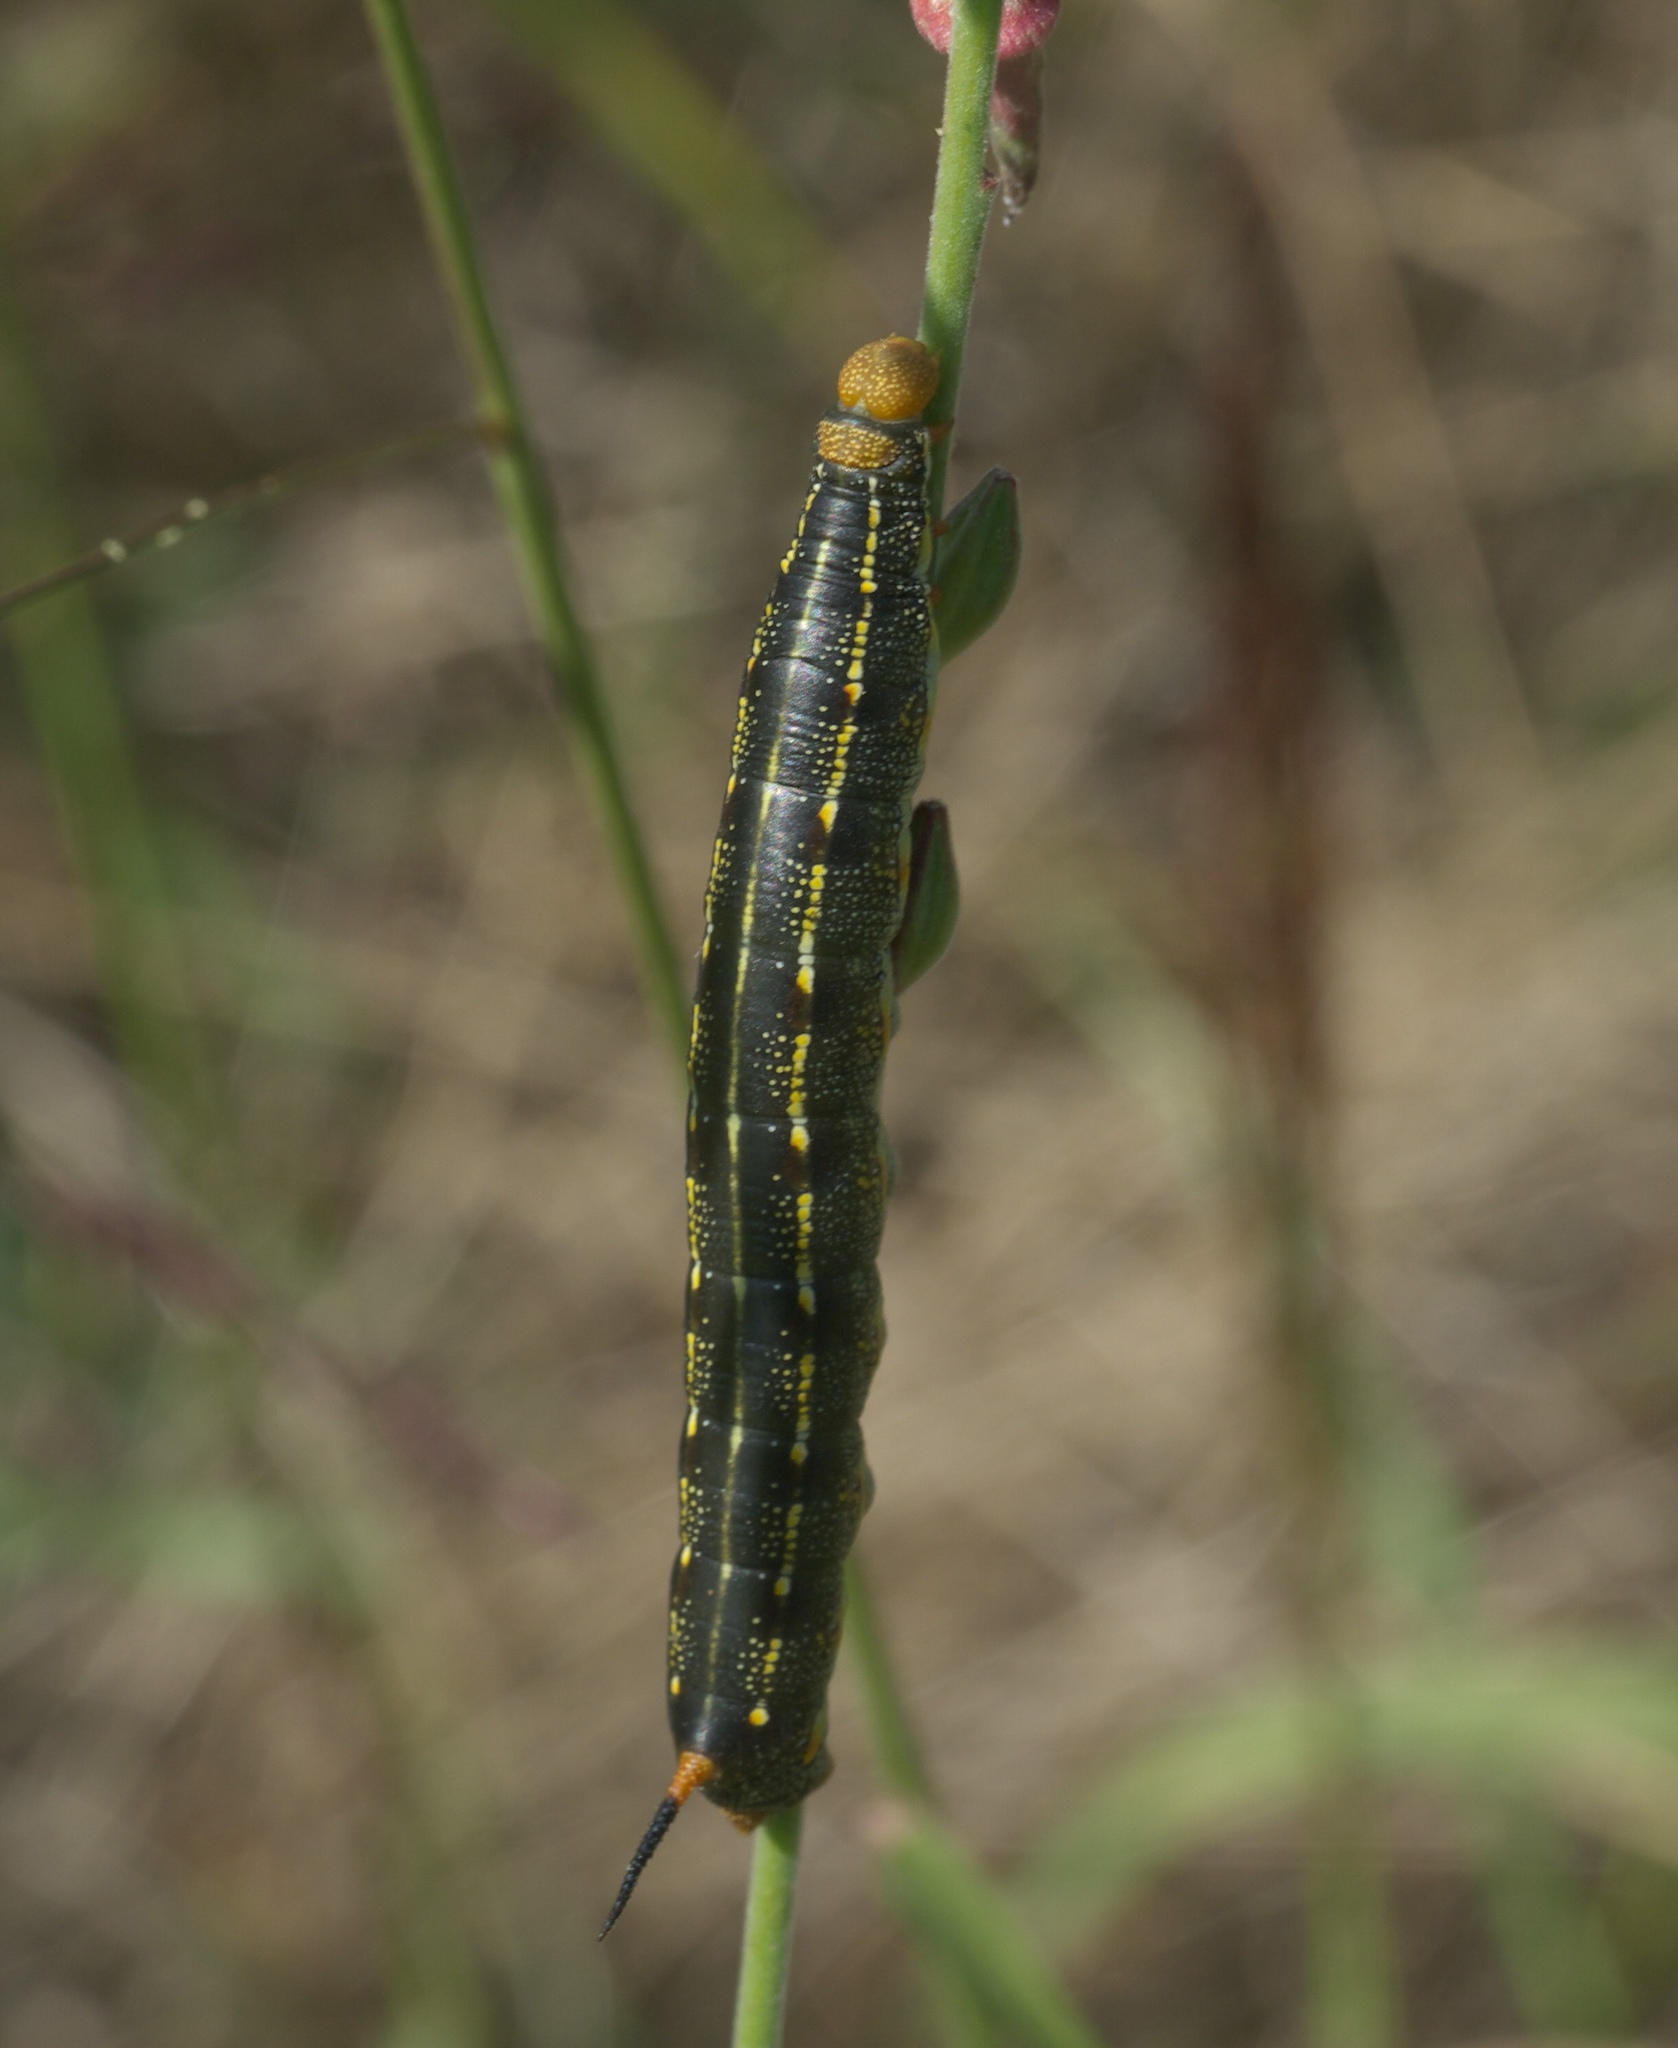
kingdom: Animalia
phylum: Arthropoda
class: Insecta
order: Lepidoptera
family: Sphingidae
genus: Hyles
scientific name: Hyles lineata
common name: White-lined sphinx
